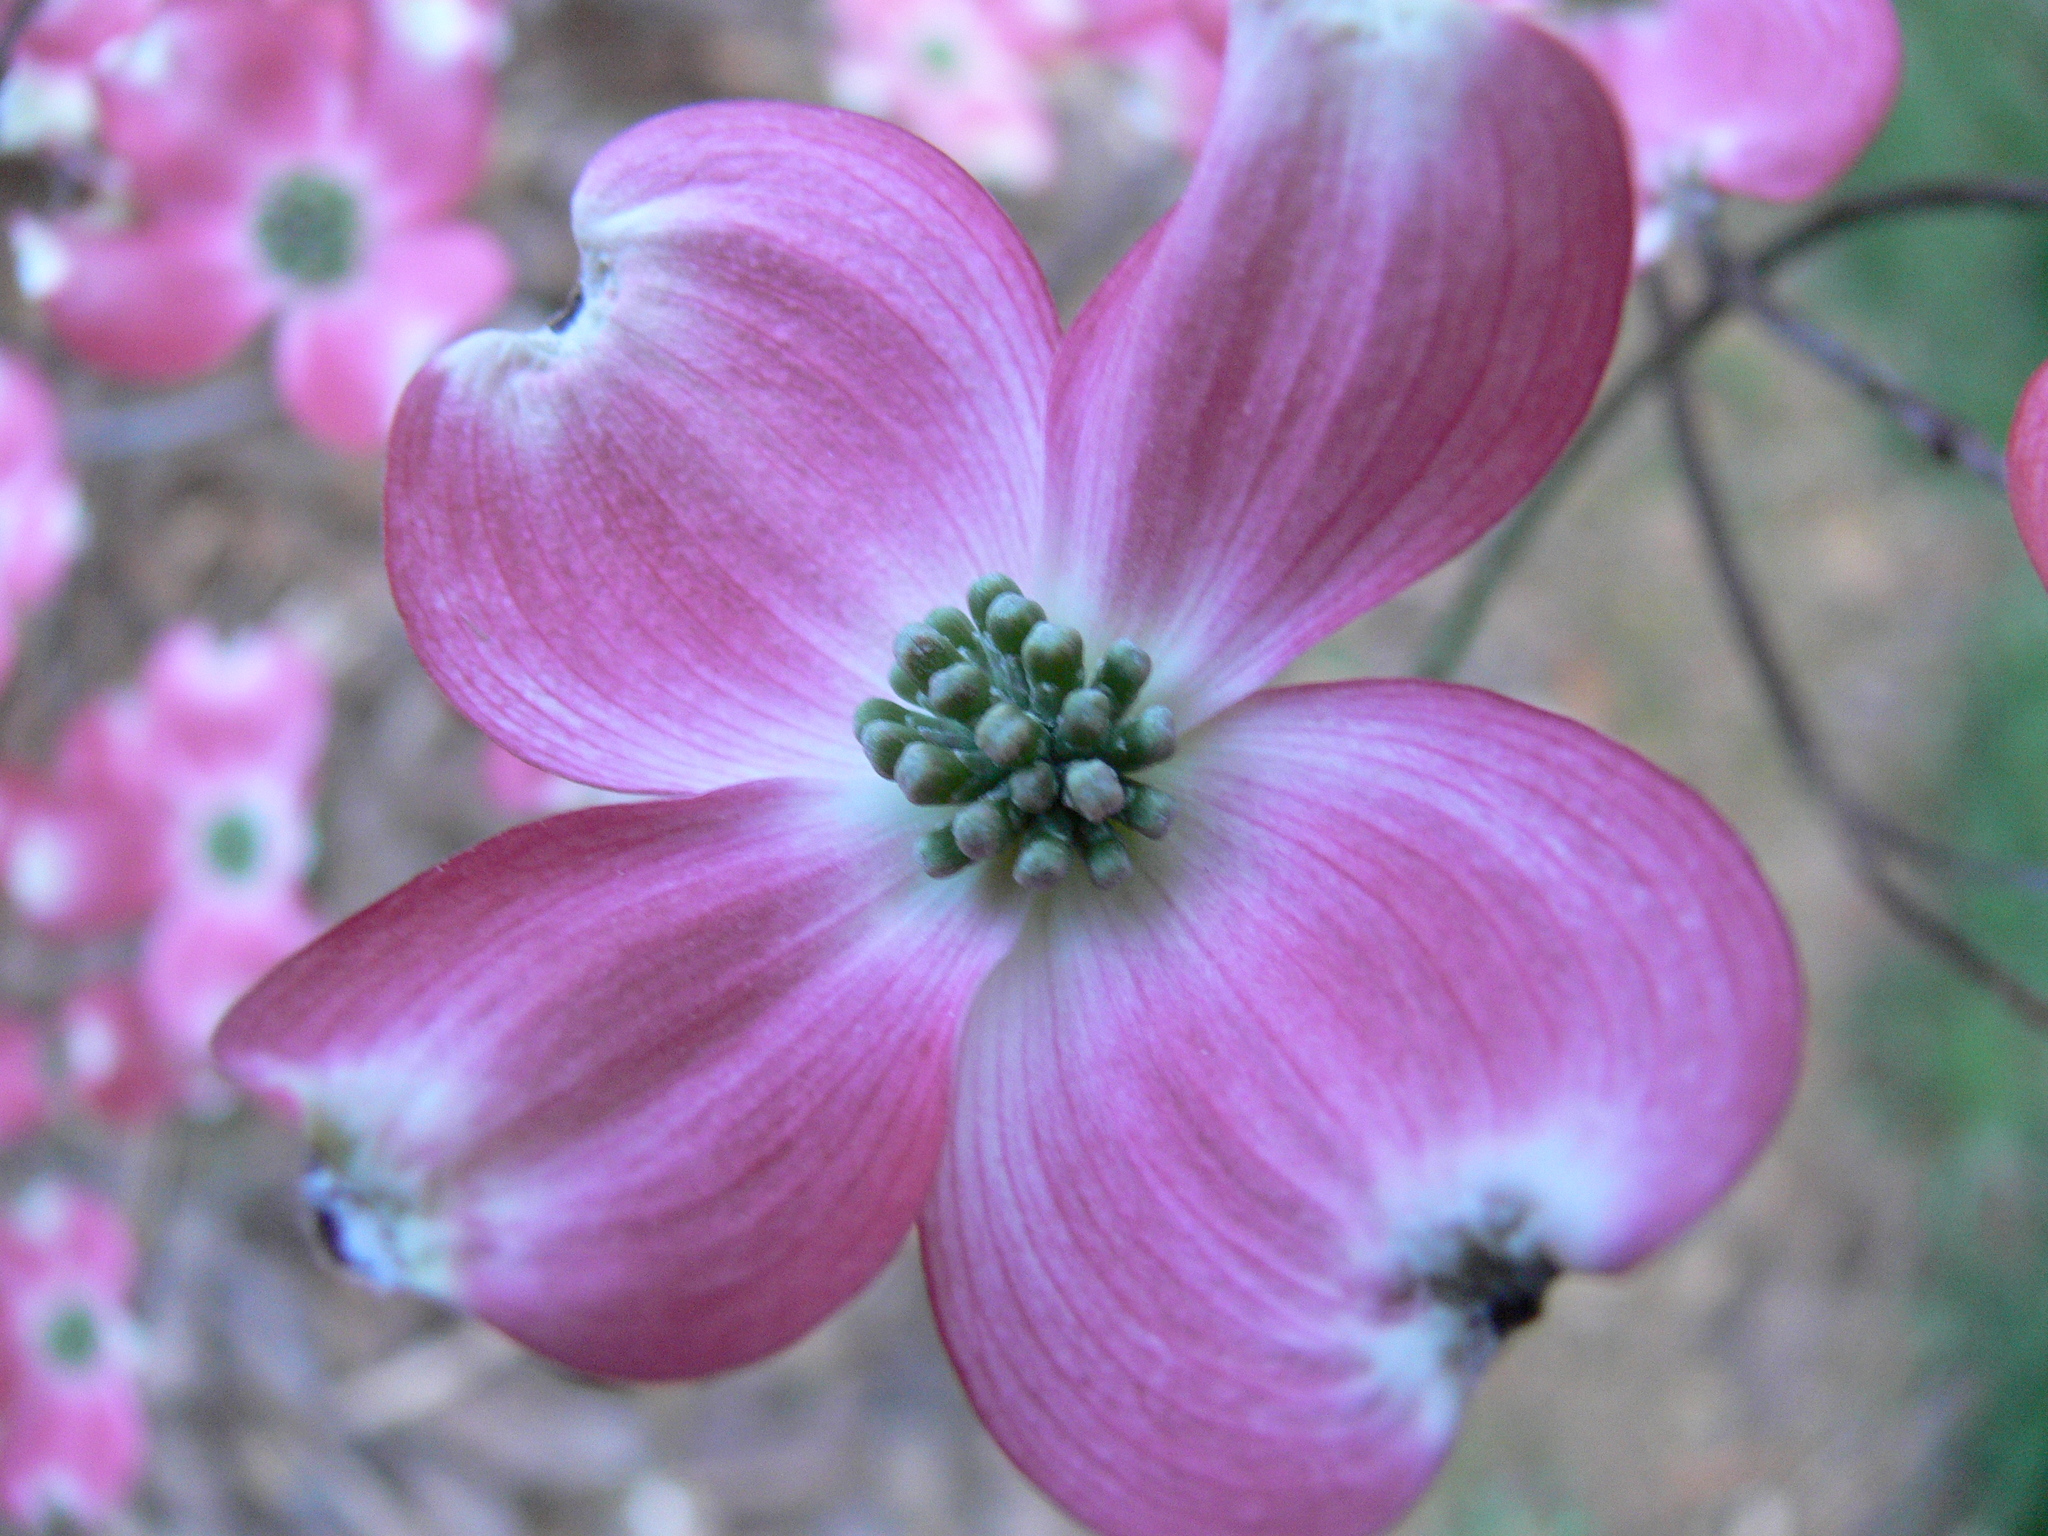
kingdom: Plantae
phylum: Tracheophyta
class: Magnoliopsida
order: Cornales
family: Cornaceae
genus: Cornus
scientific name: Cornus florida
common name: Flowering dogwood
